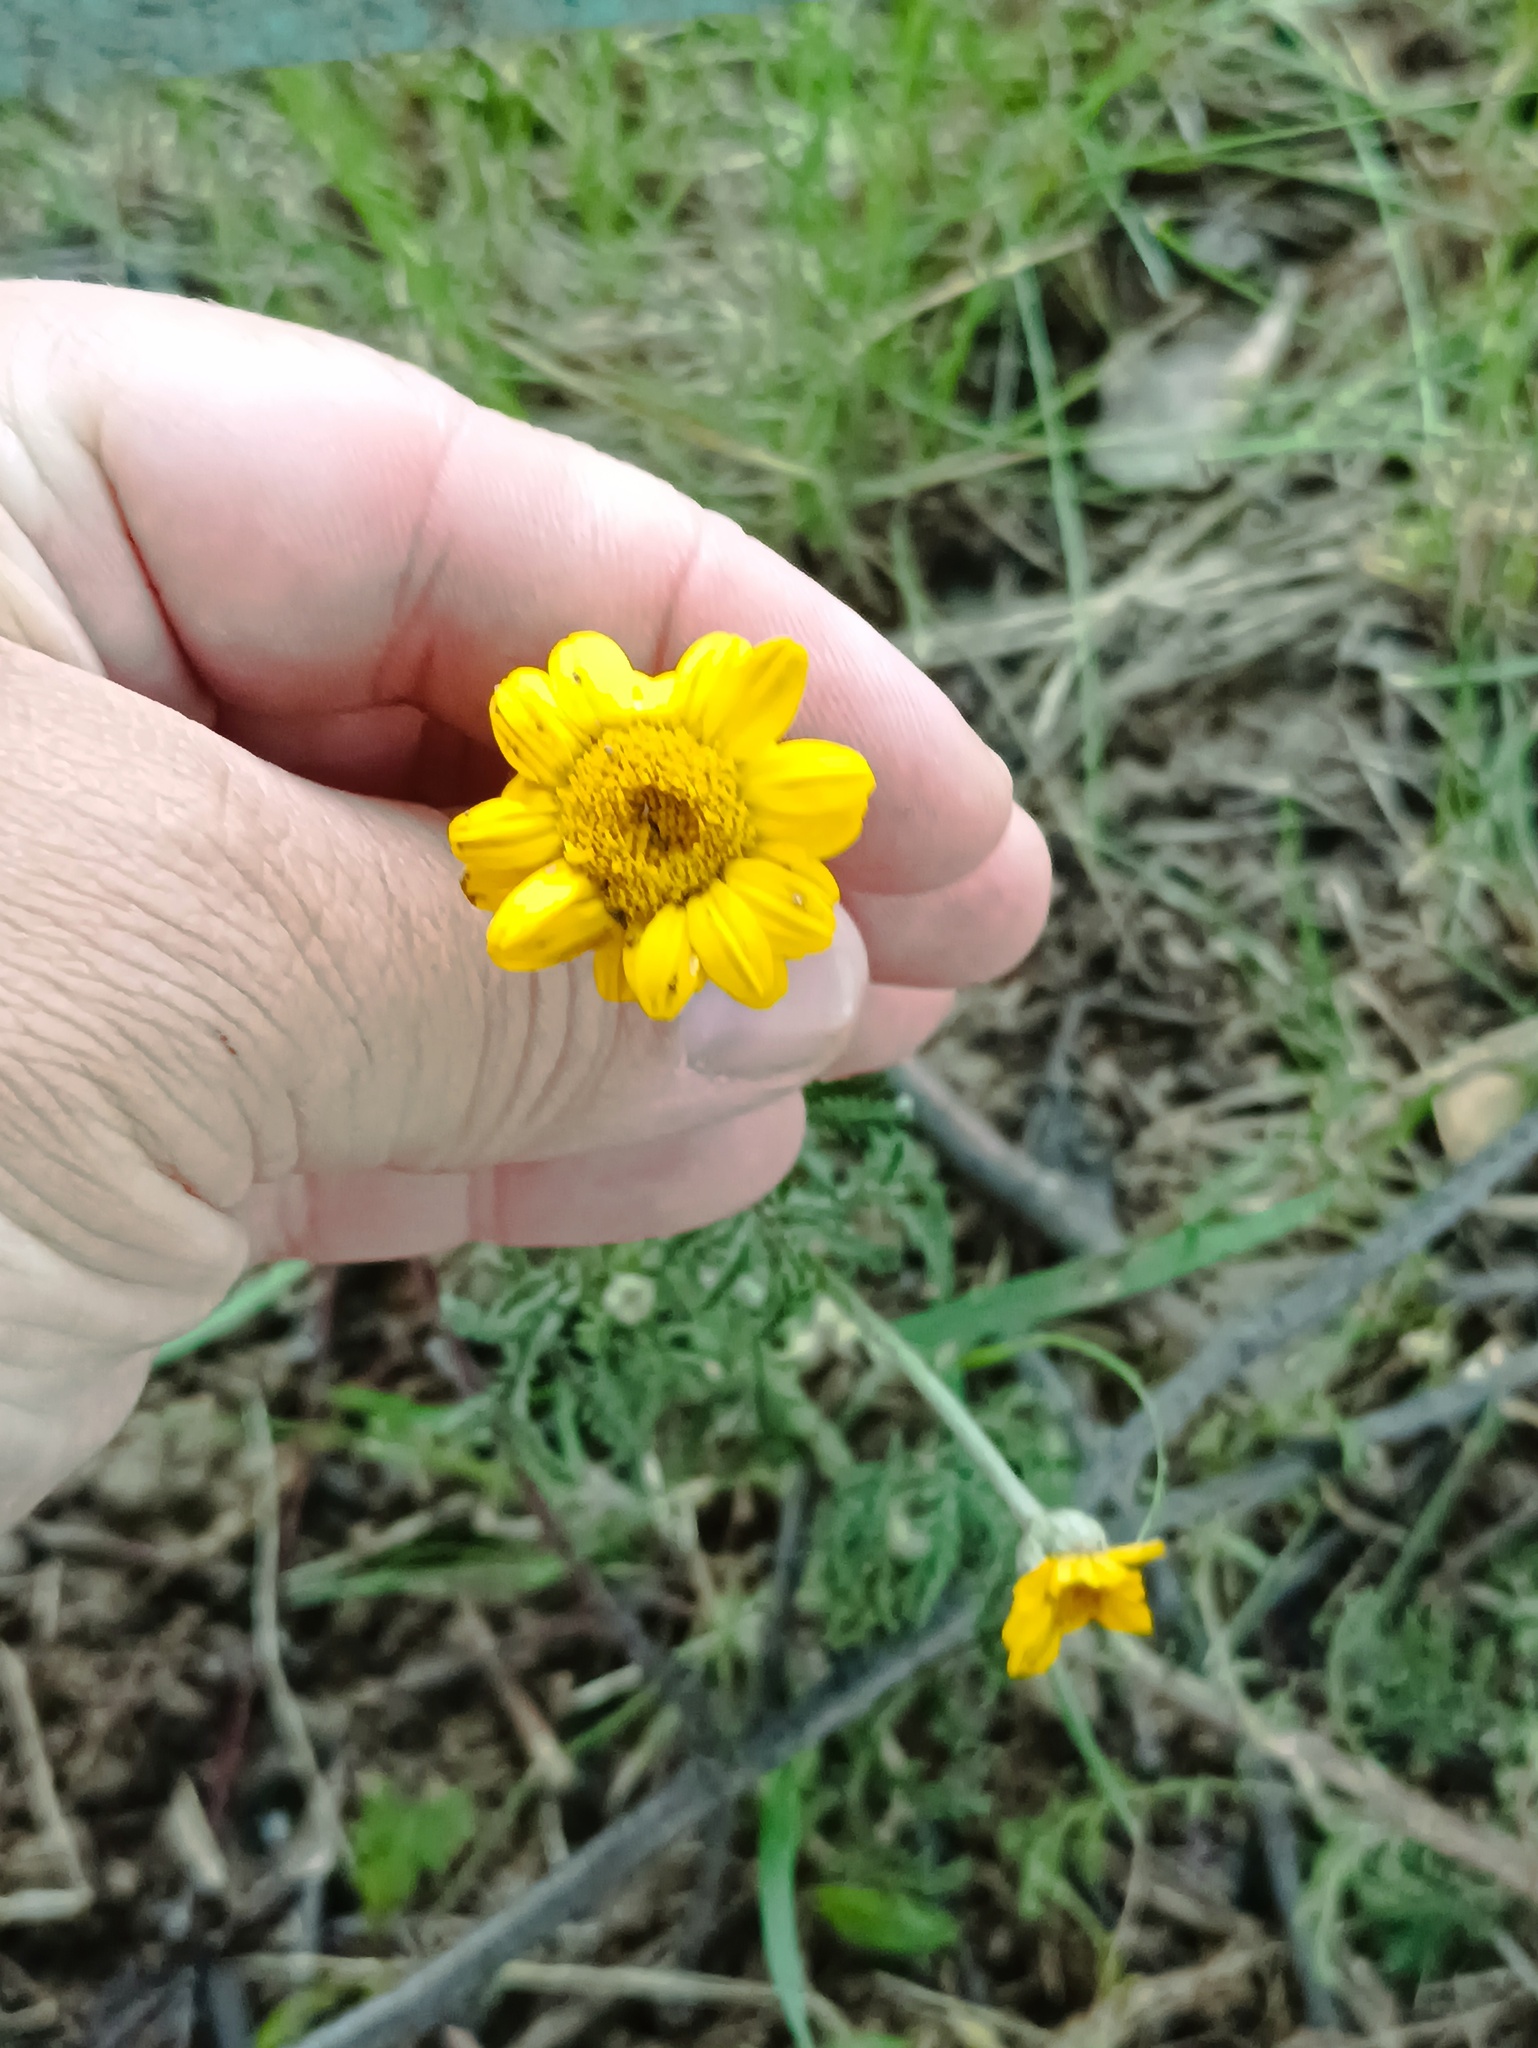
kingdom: Plantae
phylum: Tracheophyta
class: Magnoliopsida
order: Asterales
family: Asteraceae
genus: Cota
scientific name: Cota tinctoria
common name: Golden chamomile
